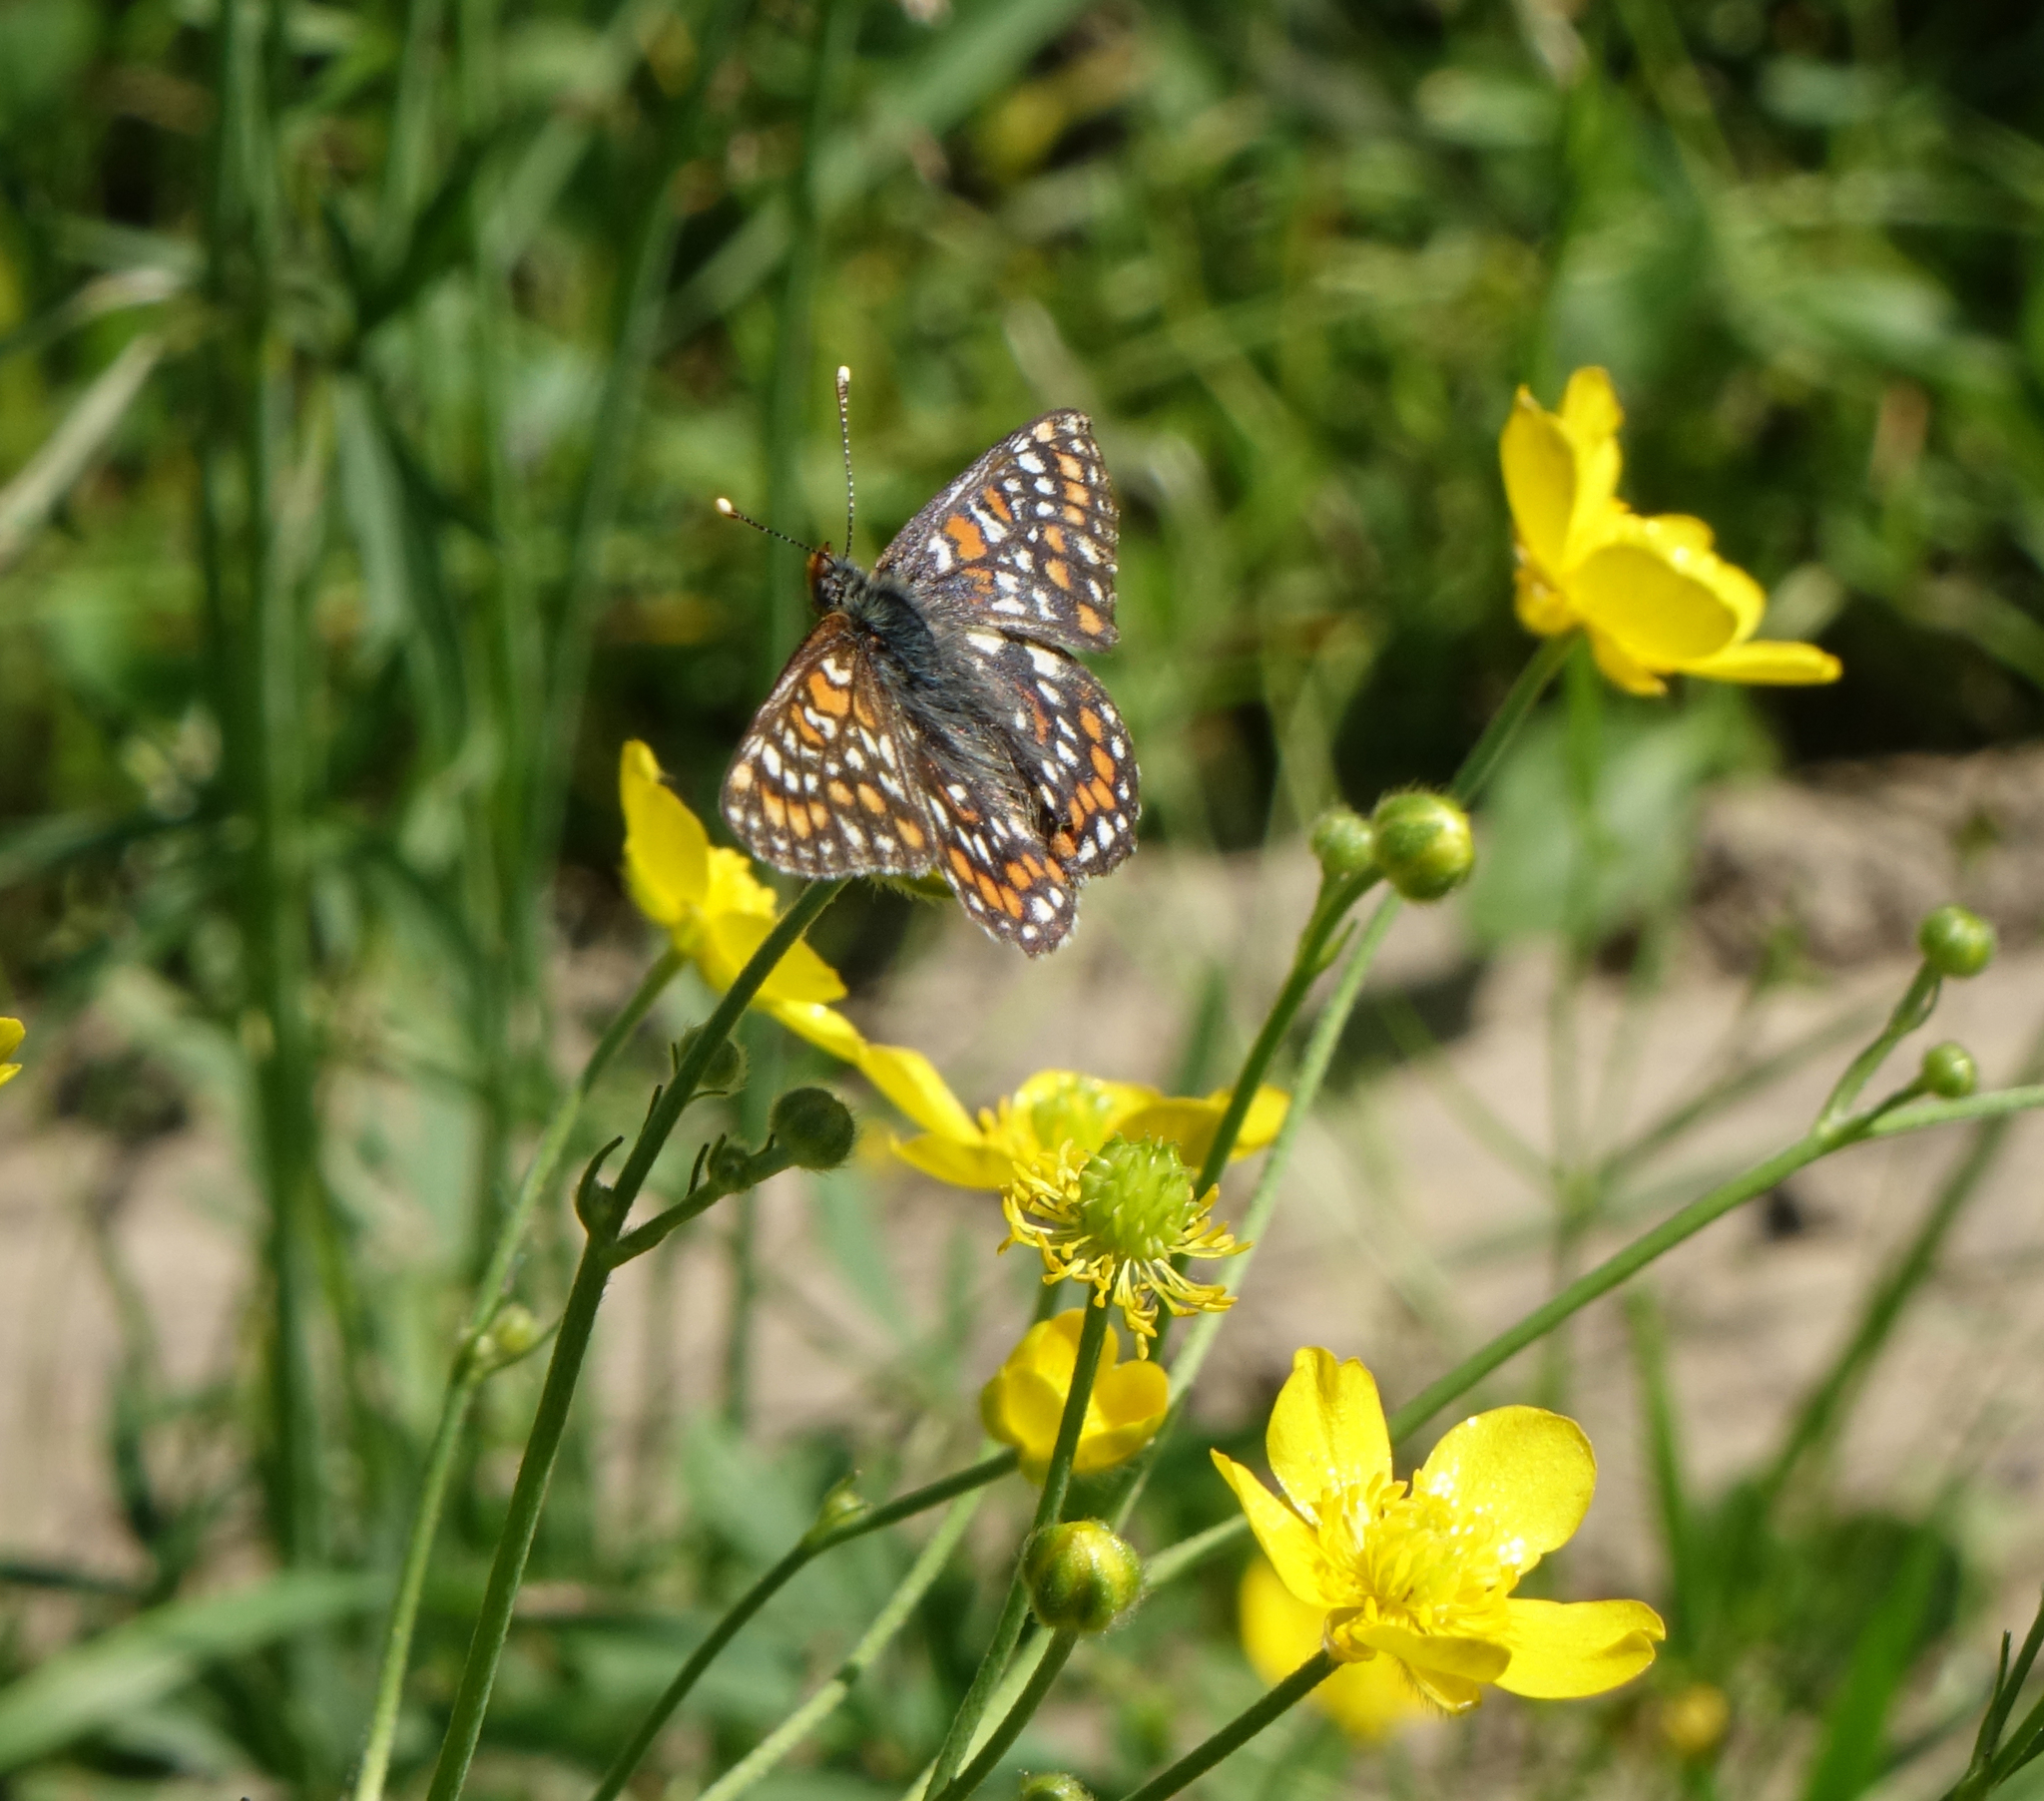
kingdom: Animalia
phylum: Arthropoda
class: Insecta
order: Lepidoptera
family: Nymphalidae
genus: Euphydryas
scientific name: Euphydryas maturna
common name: Scarce fritillary
